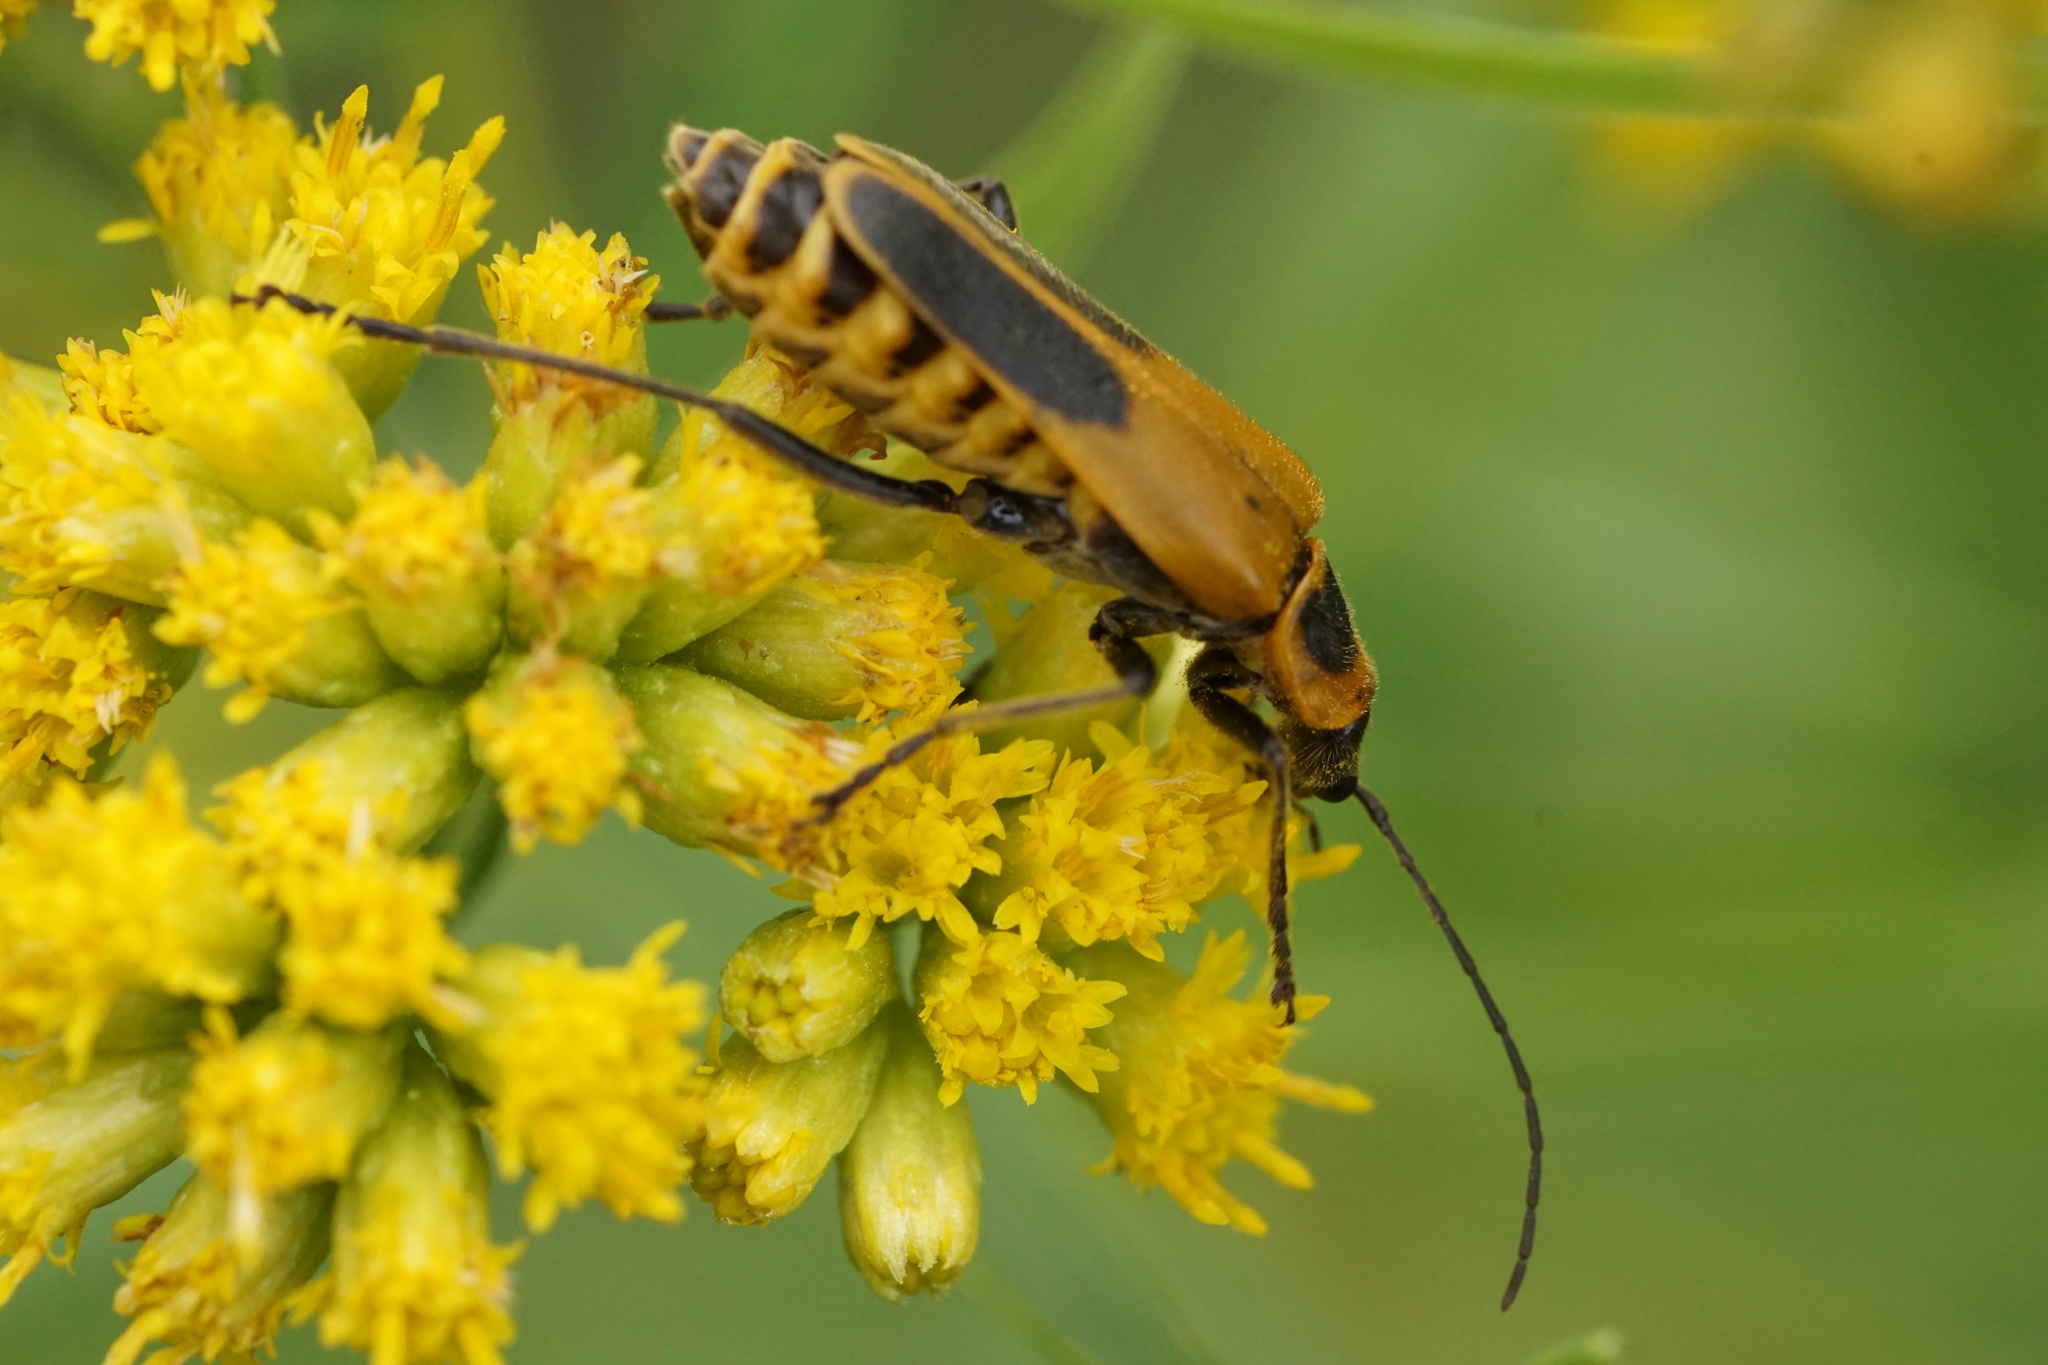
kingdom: Animalia
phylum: Arthropoda
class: Insecta
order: Coleoptera
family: Cantharidae
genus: Chauliognathus
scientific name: Chauliognathus pensylvanicus
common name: Goldenrod soldier beetle
